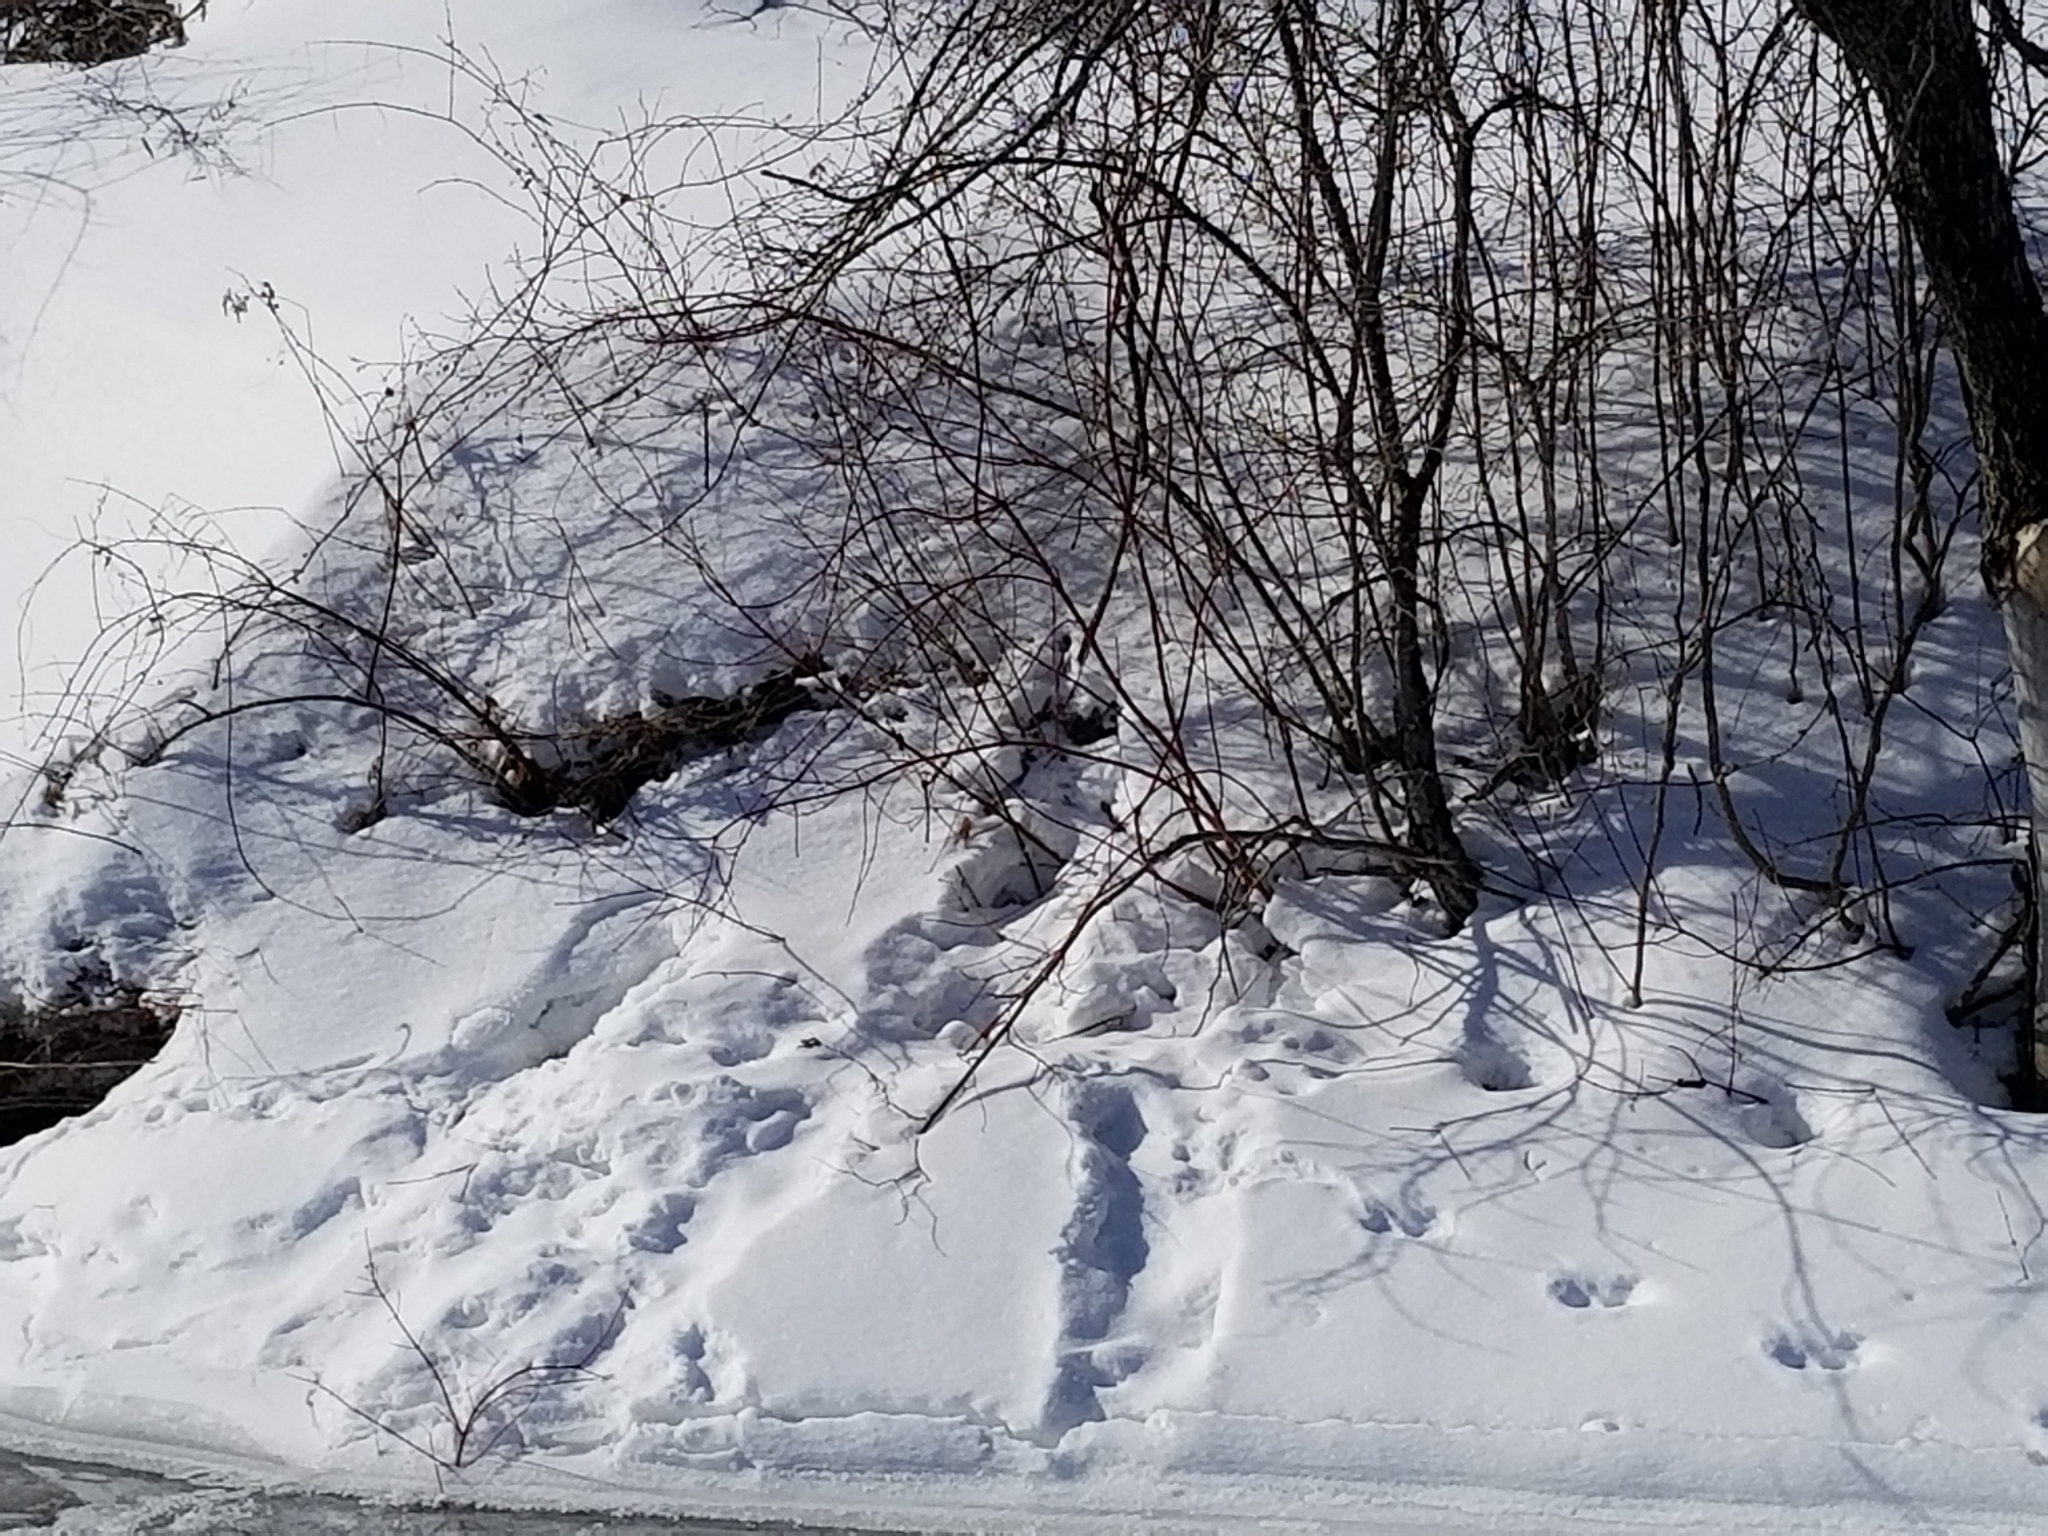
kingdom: Animalia
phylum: Chordata
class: Mammalia
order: Carnivora
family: Mustelidae
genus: Lontra
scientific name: Lontra canadensis
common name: North american river otter
